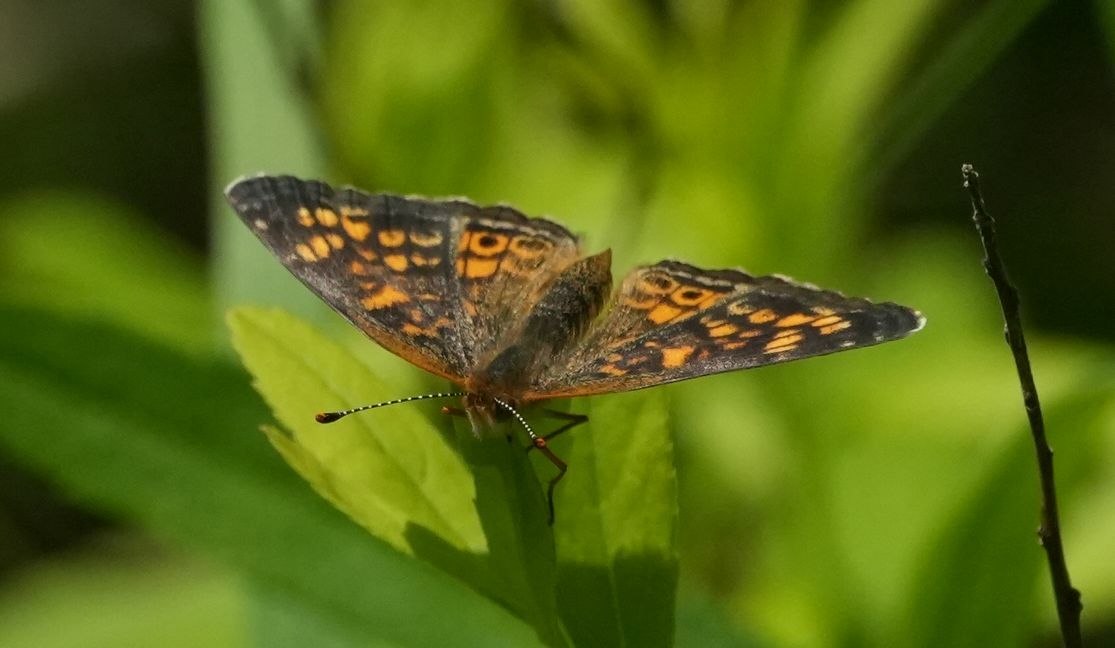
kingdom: Animalia
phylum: Arthropoda
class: Insecta
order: Lepidoptera
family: Nymphalidae
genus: Phyciodes
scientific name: Phyciodes tharos
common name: Pearl crescent
